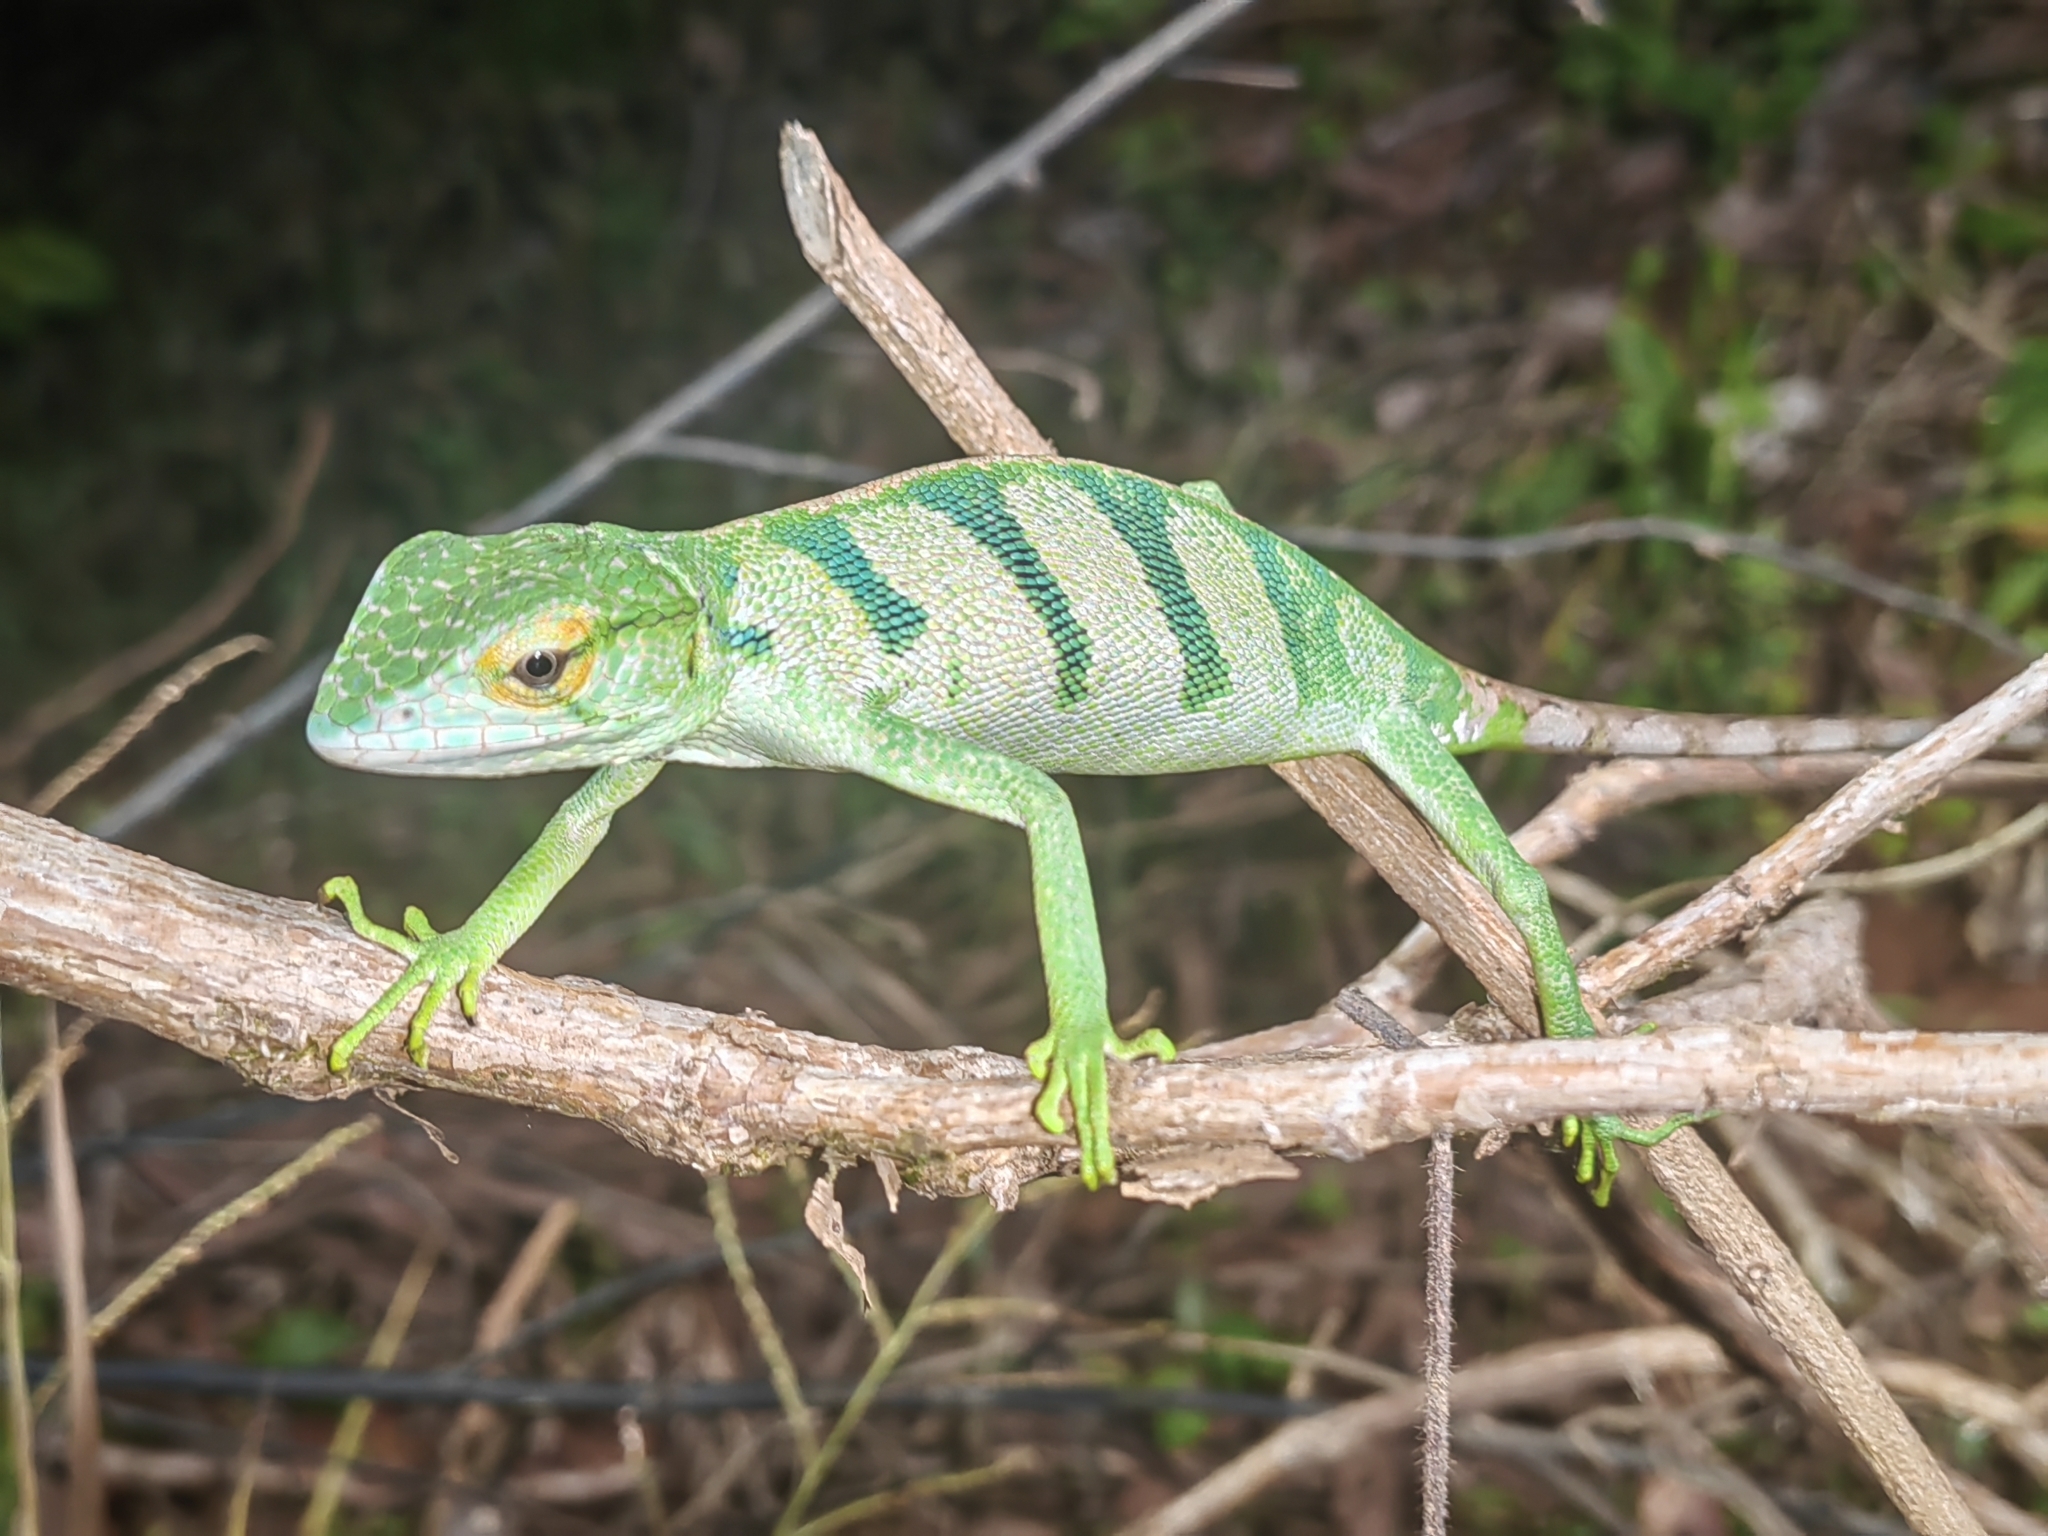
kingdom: Animalia
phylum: Chordata
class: Squamata
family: Polychrotidae
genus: Polychrus
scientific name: Polychrus gutturosus
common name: Berthold's bush anole
